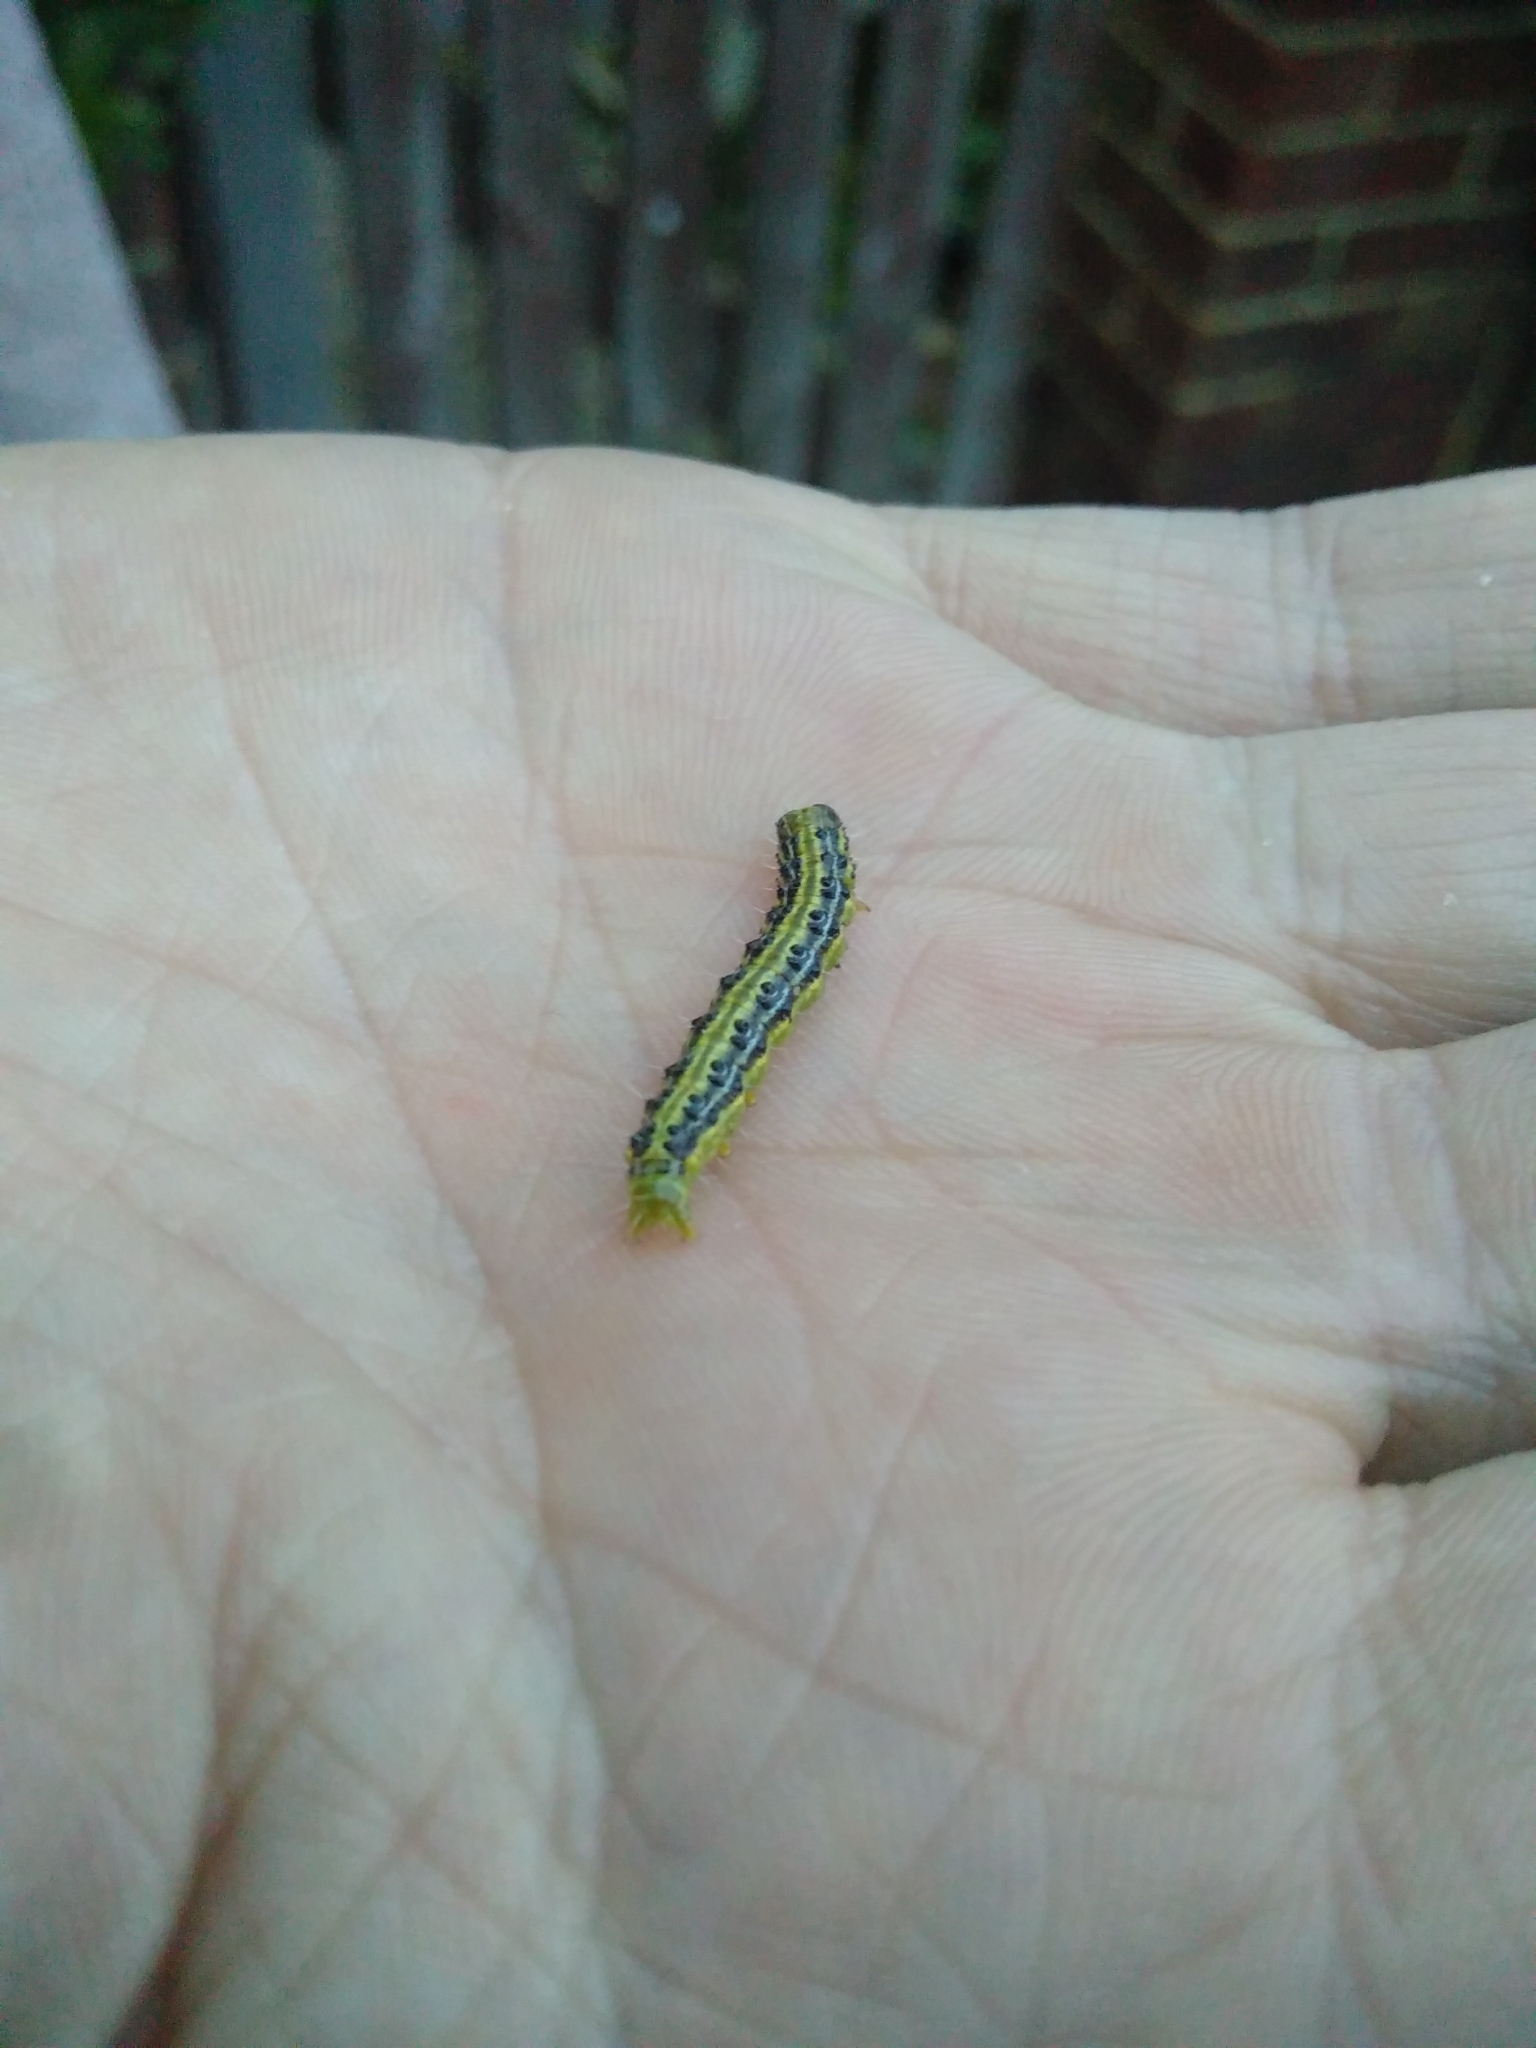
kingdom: Animalia
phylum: Arthropoda
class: Insecta
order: Lepidoptera
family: Crambidae
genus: Cydalima
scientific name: Cydalima perspectalis
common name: Box tree moth
